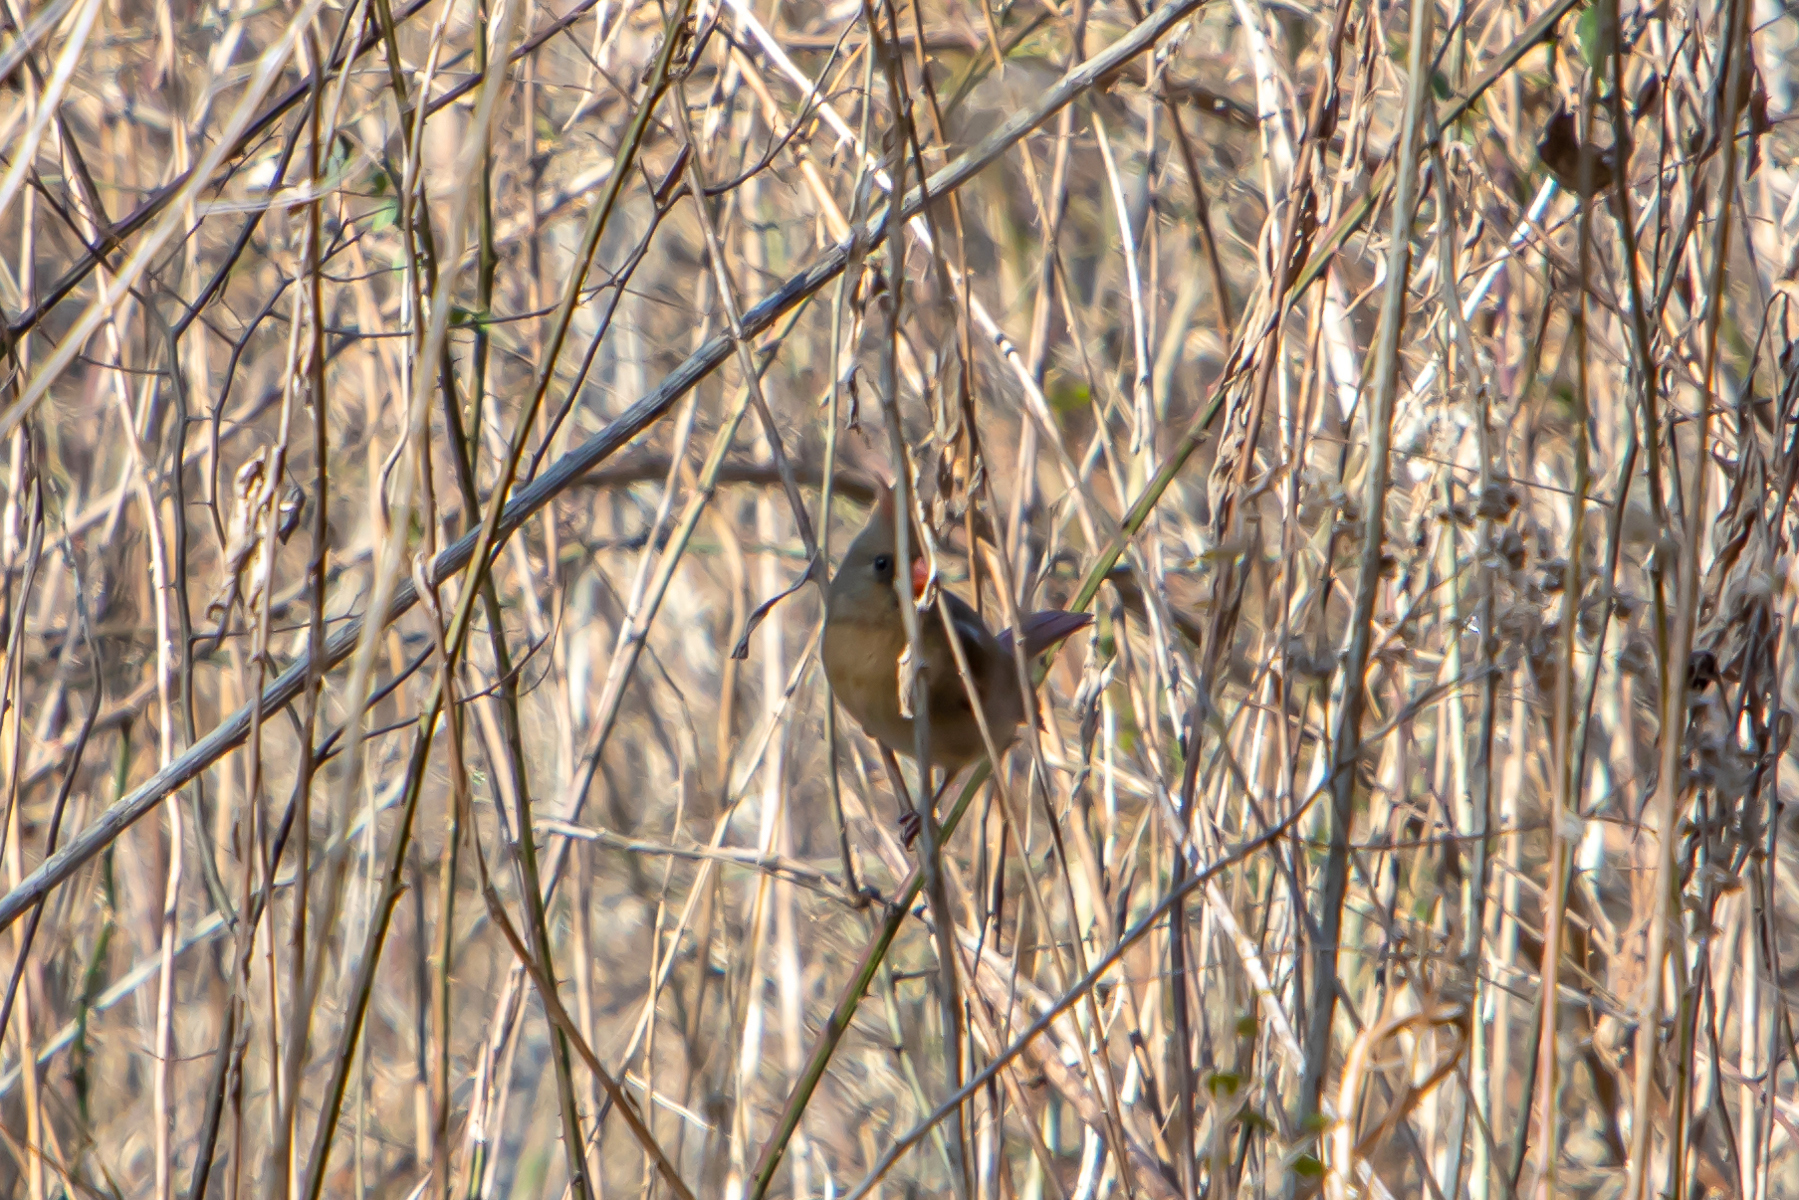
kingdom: Animalia
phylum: Chordata
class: Aves
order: Passeriformes
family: Cardinalidae
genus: Cardinalis
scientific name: Cardinalis cardinalis
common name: Northern cardinal
